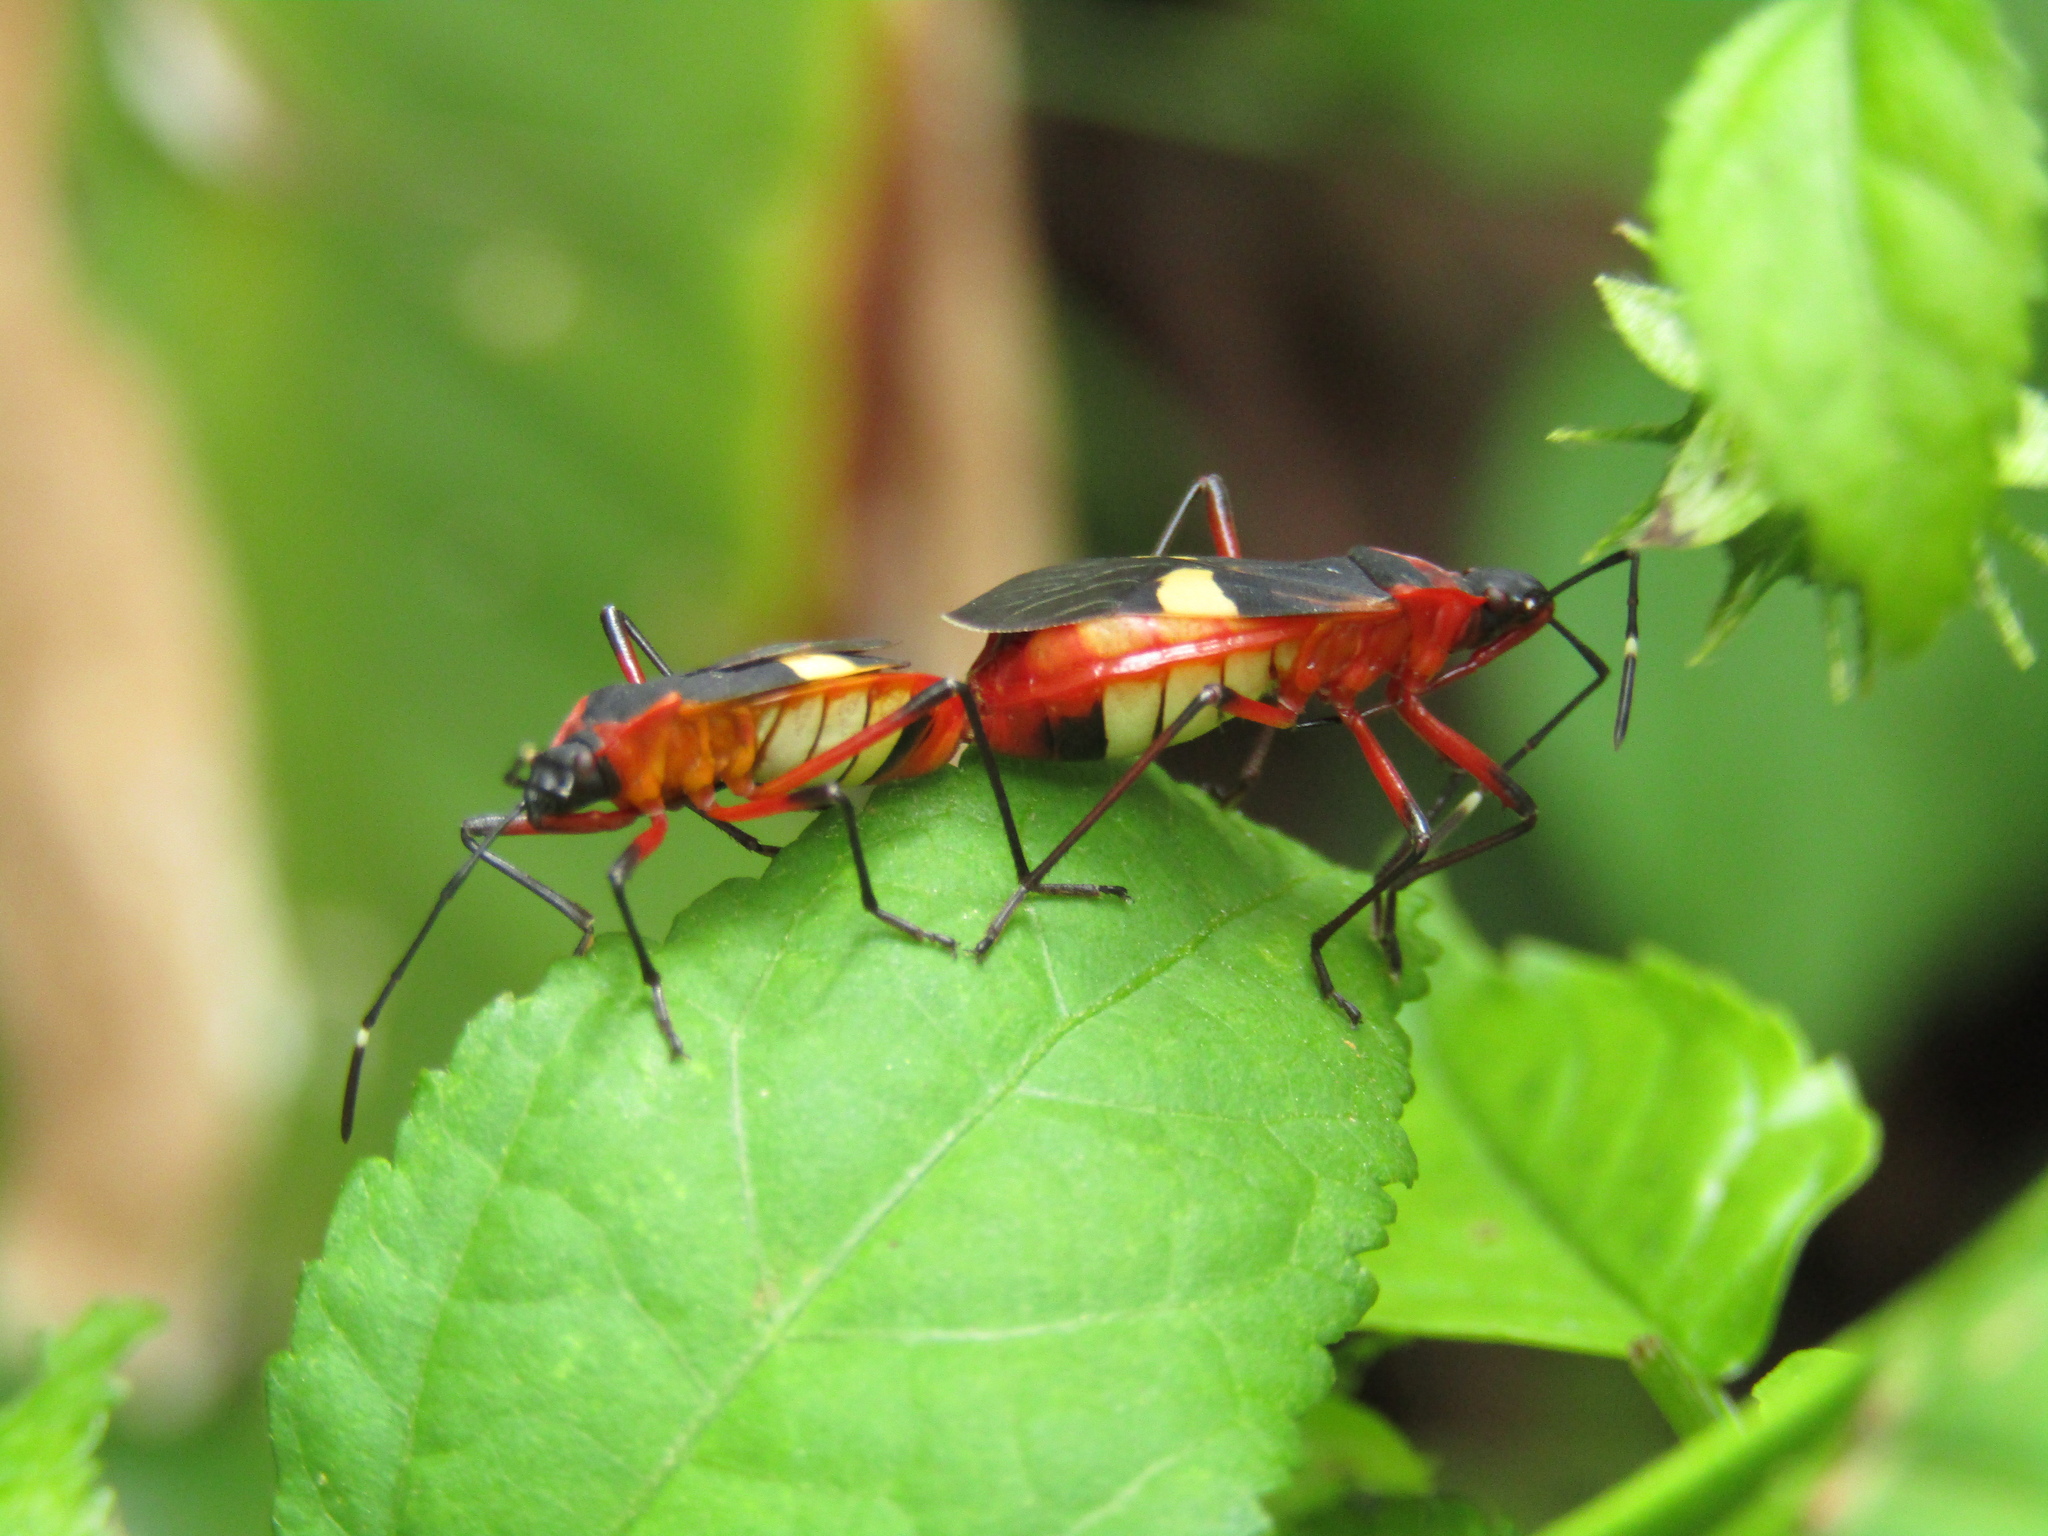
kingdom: Animalia
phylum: Arthropoda
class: Insecta
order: Hemiptera
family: Pyrrhocoridae
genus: Dysdercus
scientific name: Dysdercus albofasciatus
